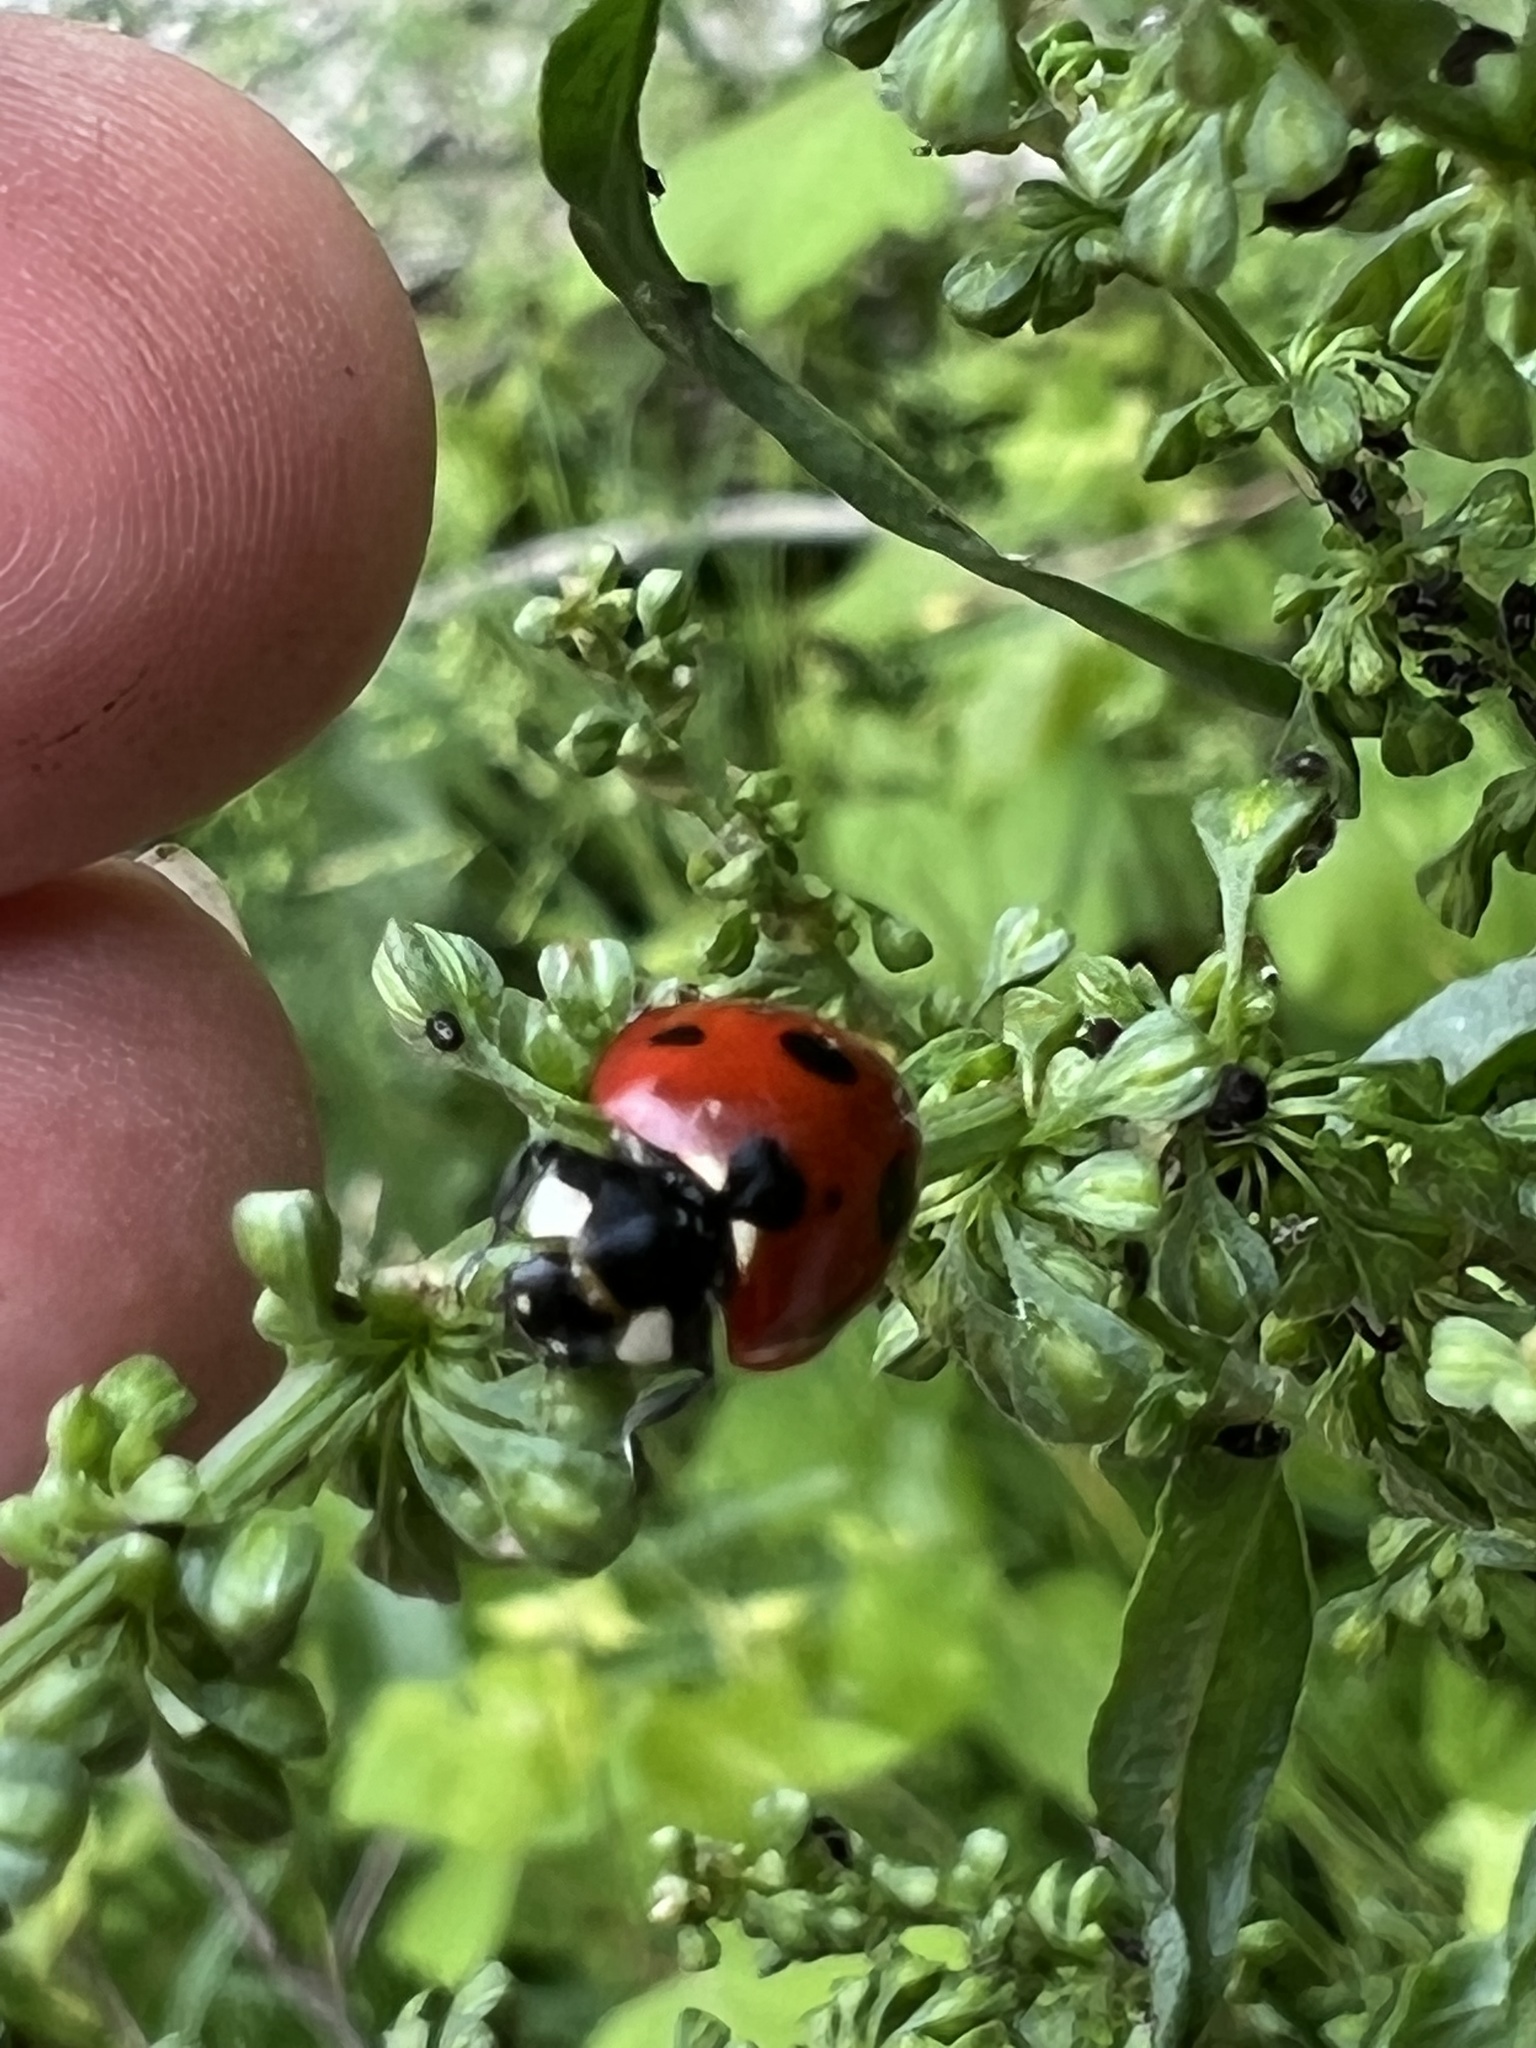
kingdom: Animalia
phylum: Arthropoda
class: Insecta
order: Coleoptera
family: Coccinellidae
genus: Coccinella
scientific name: Coccinella septempunctata
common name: Sevenspotted lady beetle
